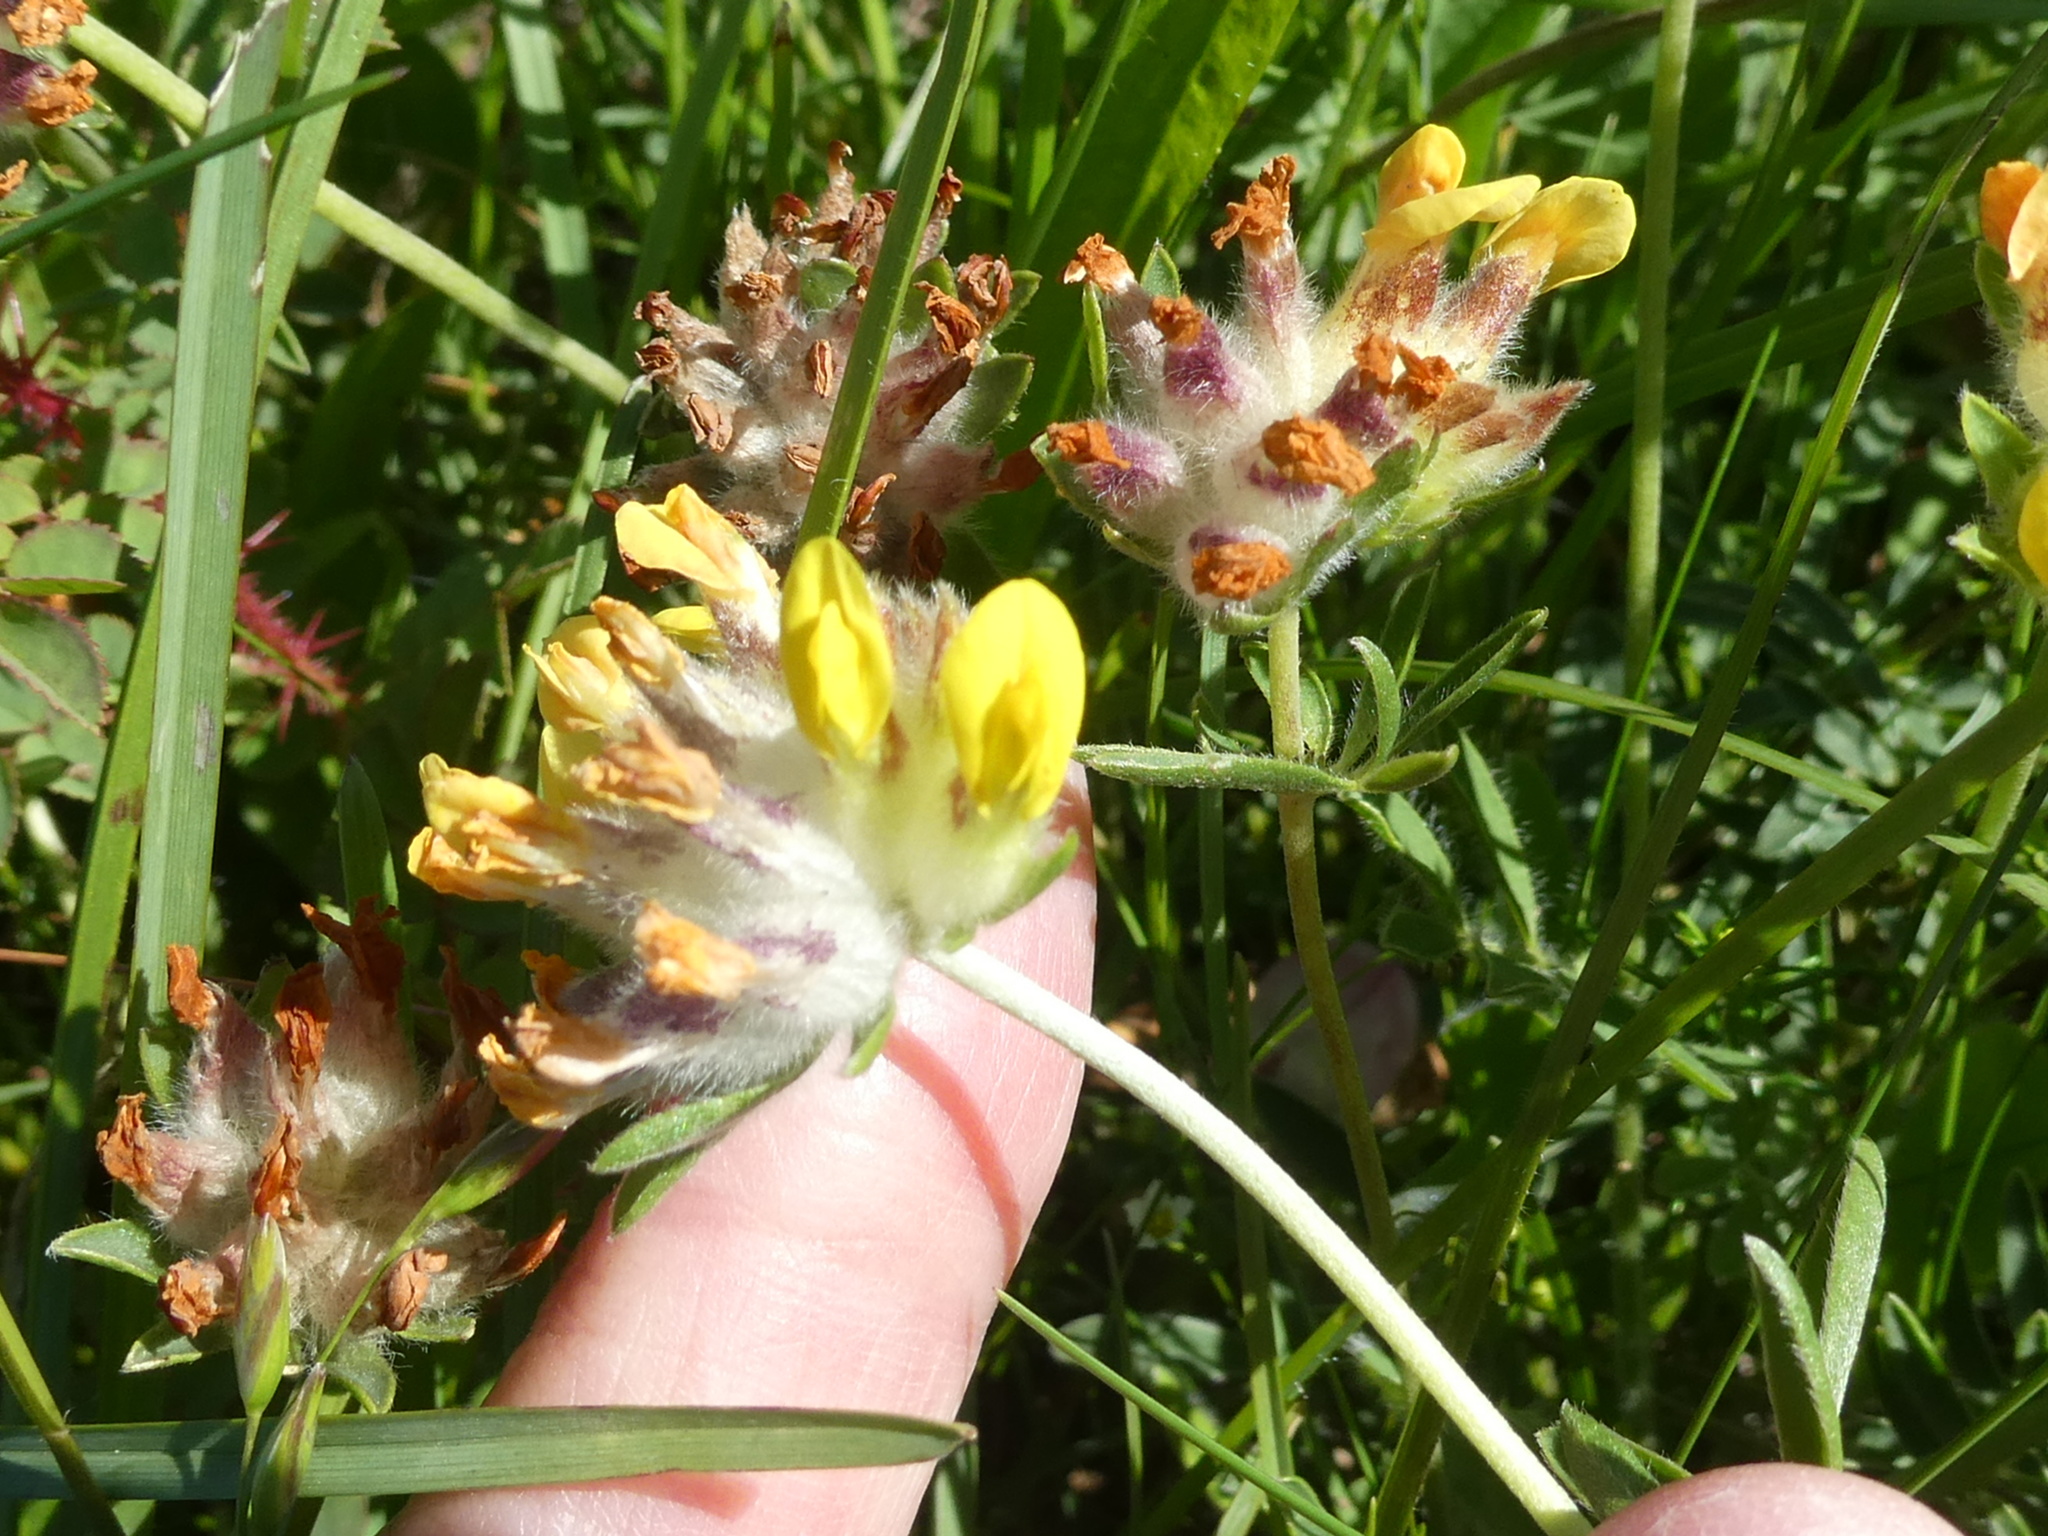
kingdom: Plantae
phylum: Tracheophyta
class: Magnoliopsida
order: Fabales
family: Fabaceae
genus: Anthyllis
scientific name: Anthyllis vulneraria
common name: Kidney vetch
